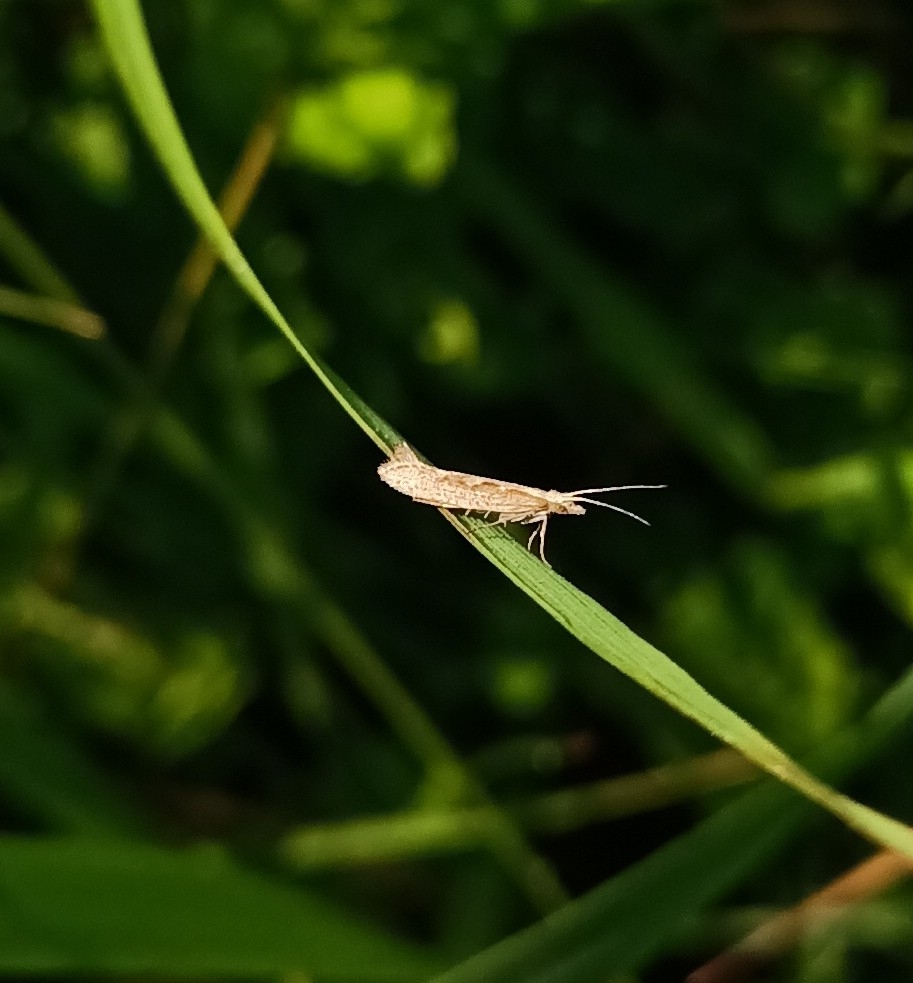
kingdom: Animalia
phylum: Arthropoda
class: Insecta
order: Lepidoptera
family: Plutellidae
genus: Plutella
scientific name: Plutella xylostella
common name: Diamond-back moth
